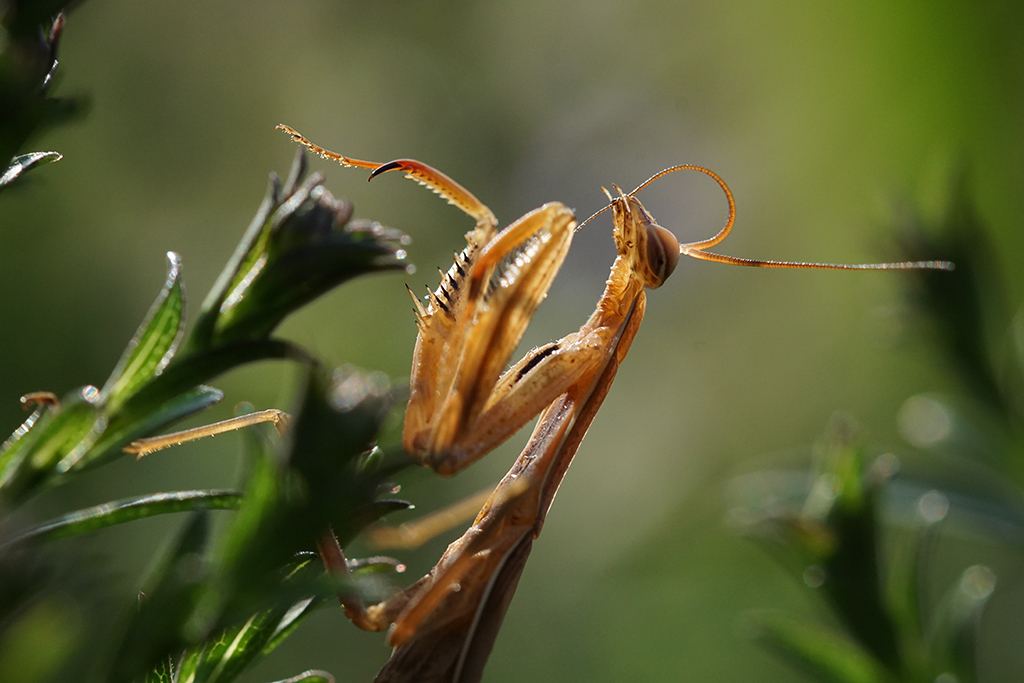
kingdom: Animalia
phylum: Arthropoda
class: Insecta
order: Mantodea
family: Mantidae
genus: Mantis
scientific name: Mantis religiosa
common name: Praying mantis
